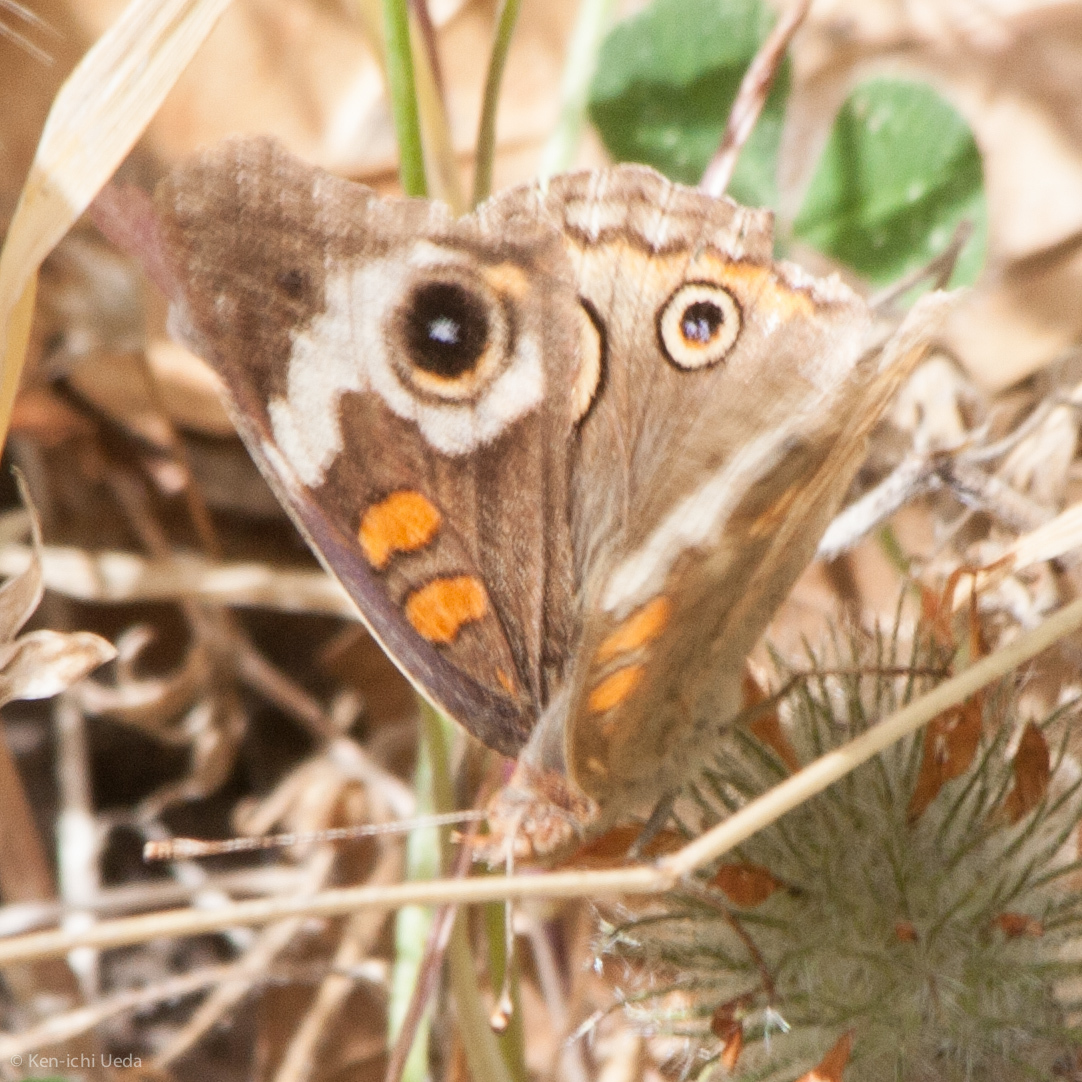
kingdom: Animalia
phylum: Arthropoda
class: Insecta
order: Lepidoptera
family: Nymphalidae
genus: Junonia
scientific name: Junonia grisea
